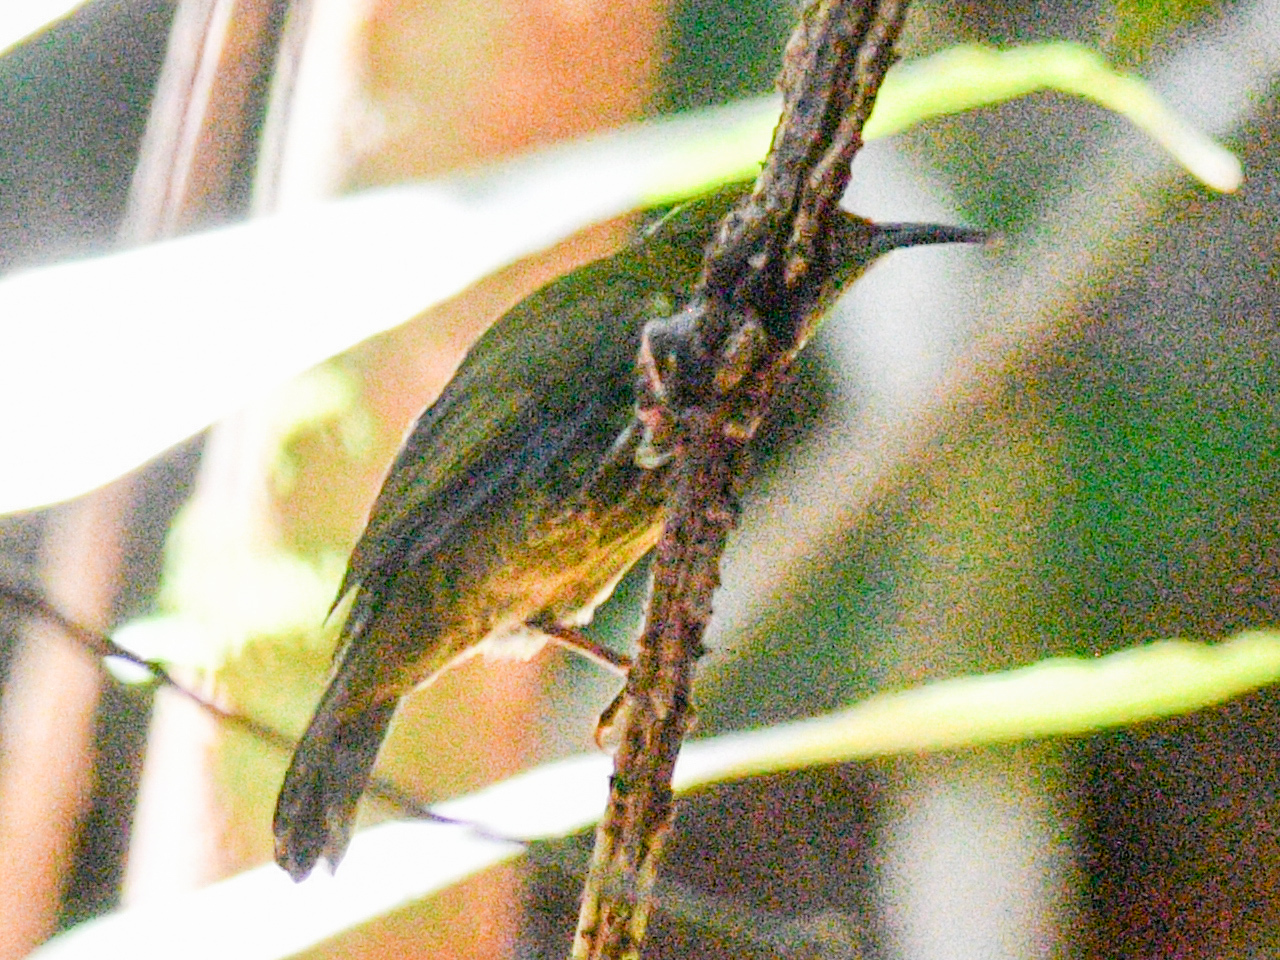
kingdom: Animalia
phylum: Chordata
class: Aves
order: Passeriformes
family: Nectariniidae
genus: Hypogramma
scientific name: Hypogramma hypogrammicum
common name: Purple-naped sunbird
